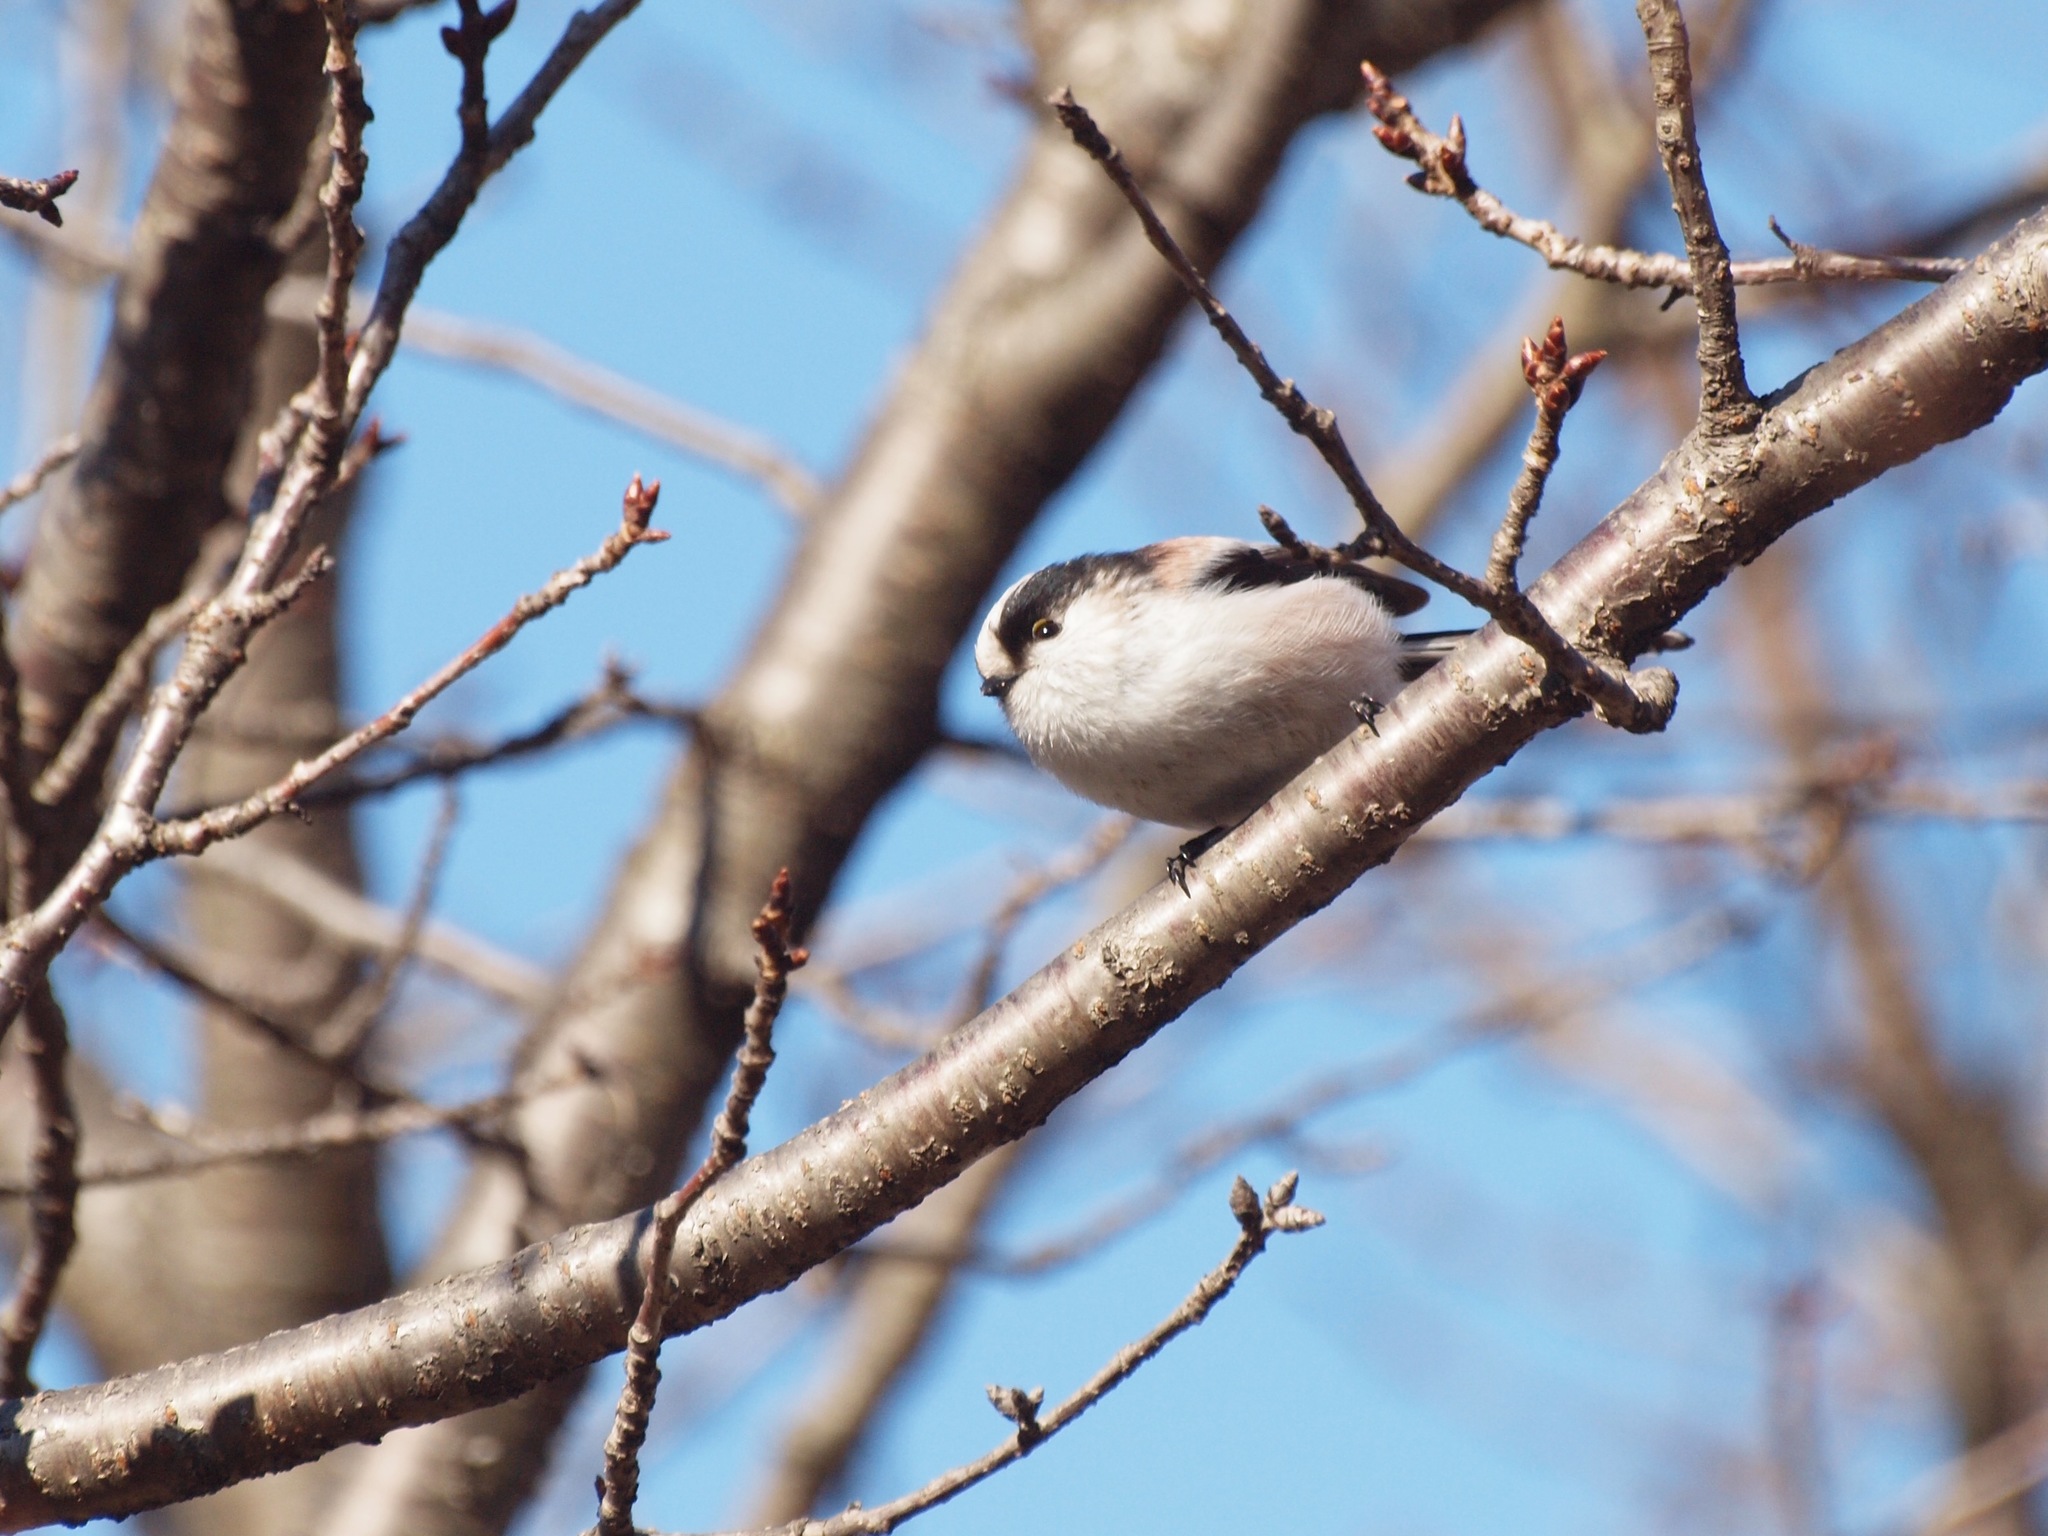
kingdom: Animalia
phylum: Chordata
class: Aves
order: Passeriformes
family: Aegithalidae
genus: Aegithalos
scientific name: Aegithalos caudatus
